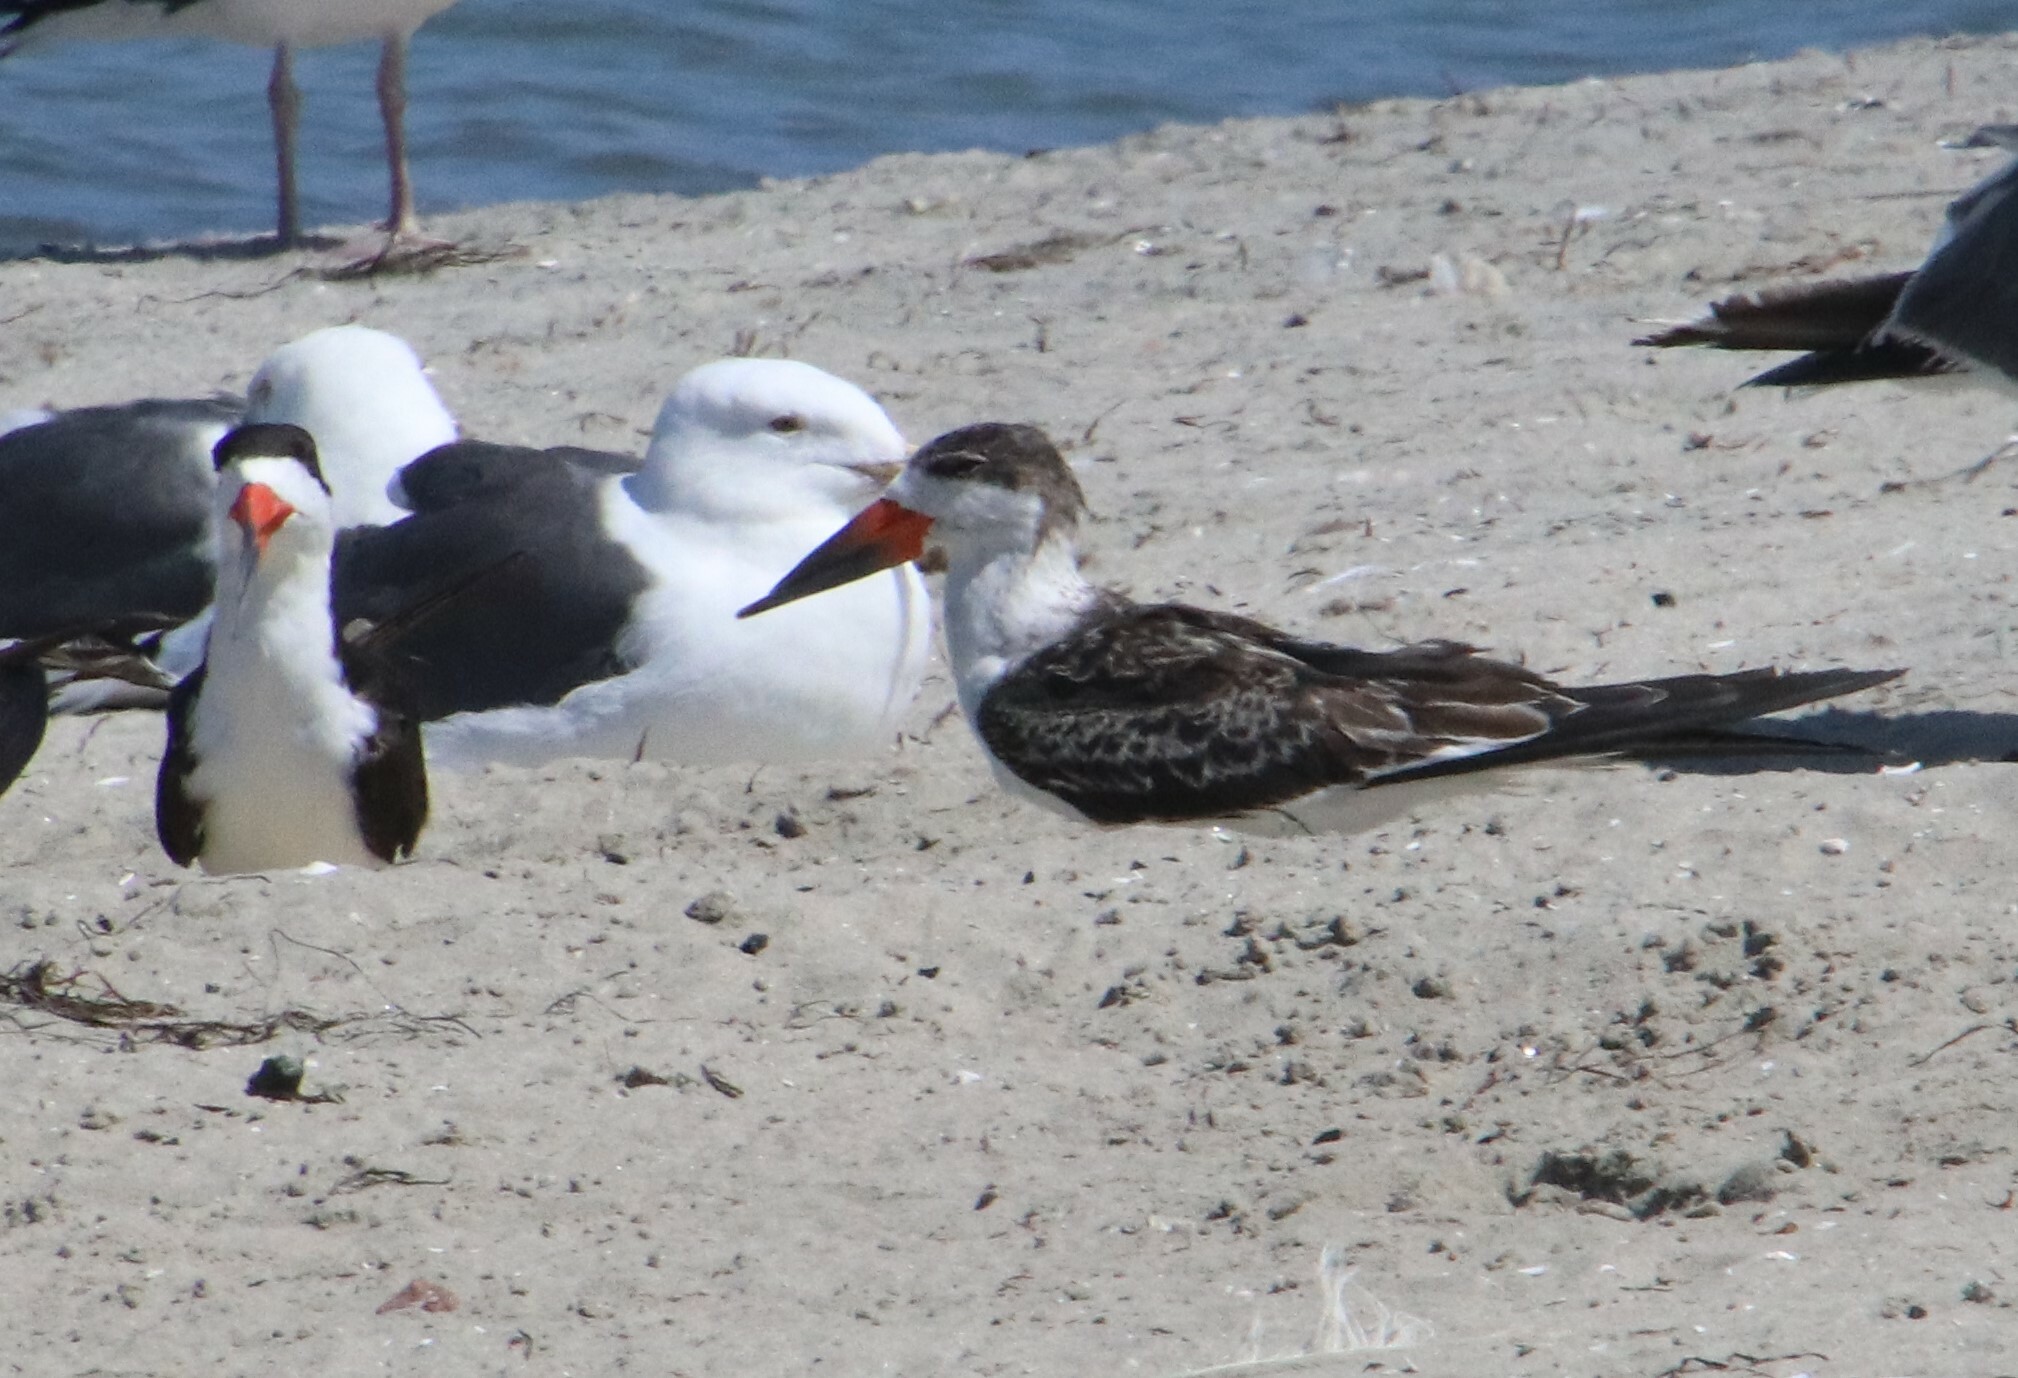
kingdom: Animalia
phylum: Chordata
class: Aves
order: Charadriiformes
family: Laridae
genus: Rynchops
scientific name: Rynchops niger
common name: Black skimmer
